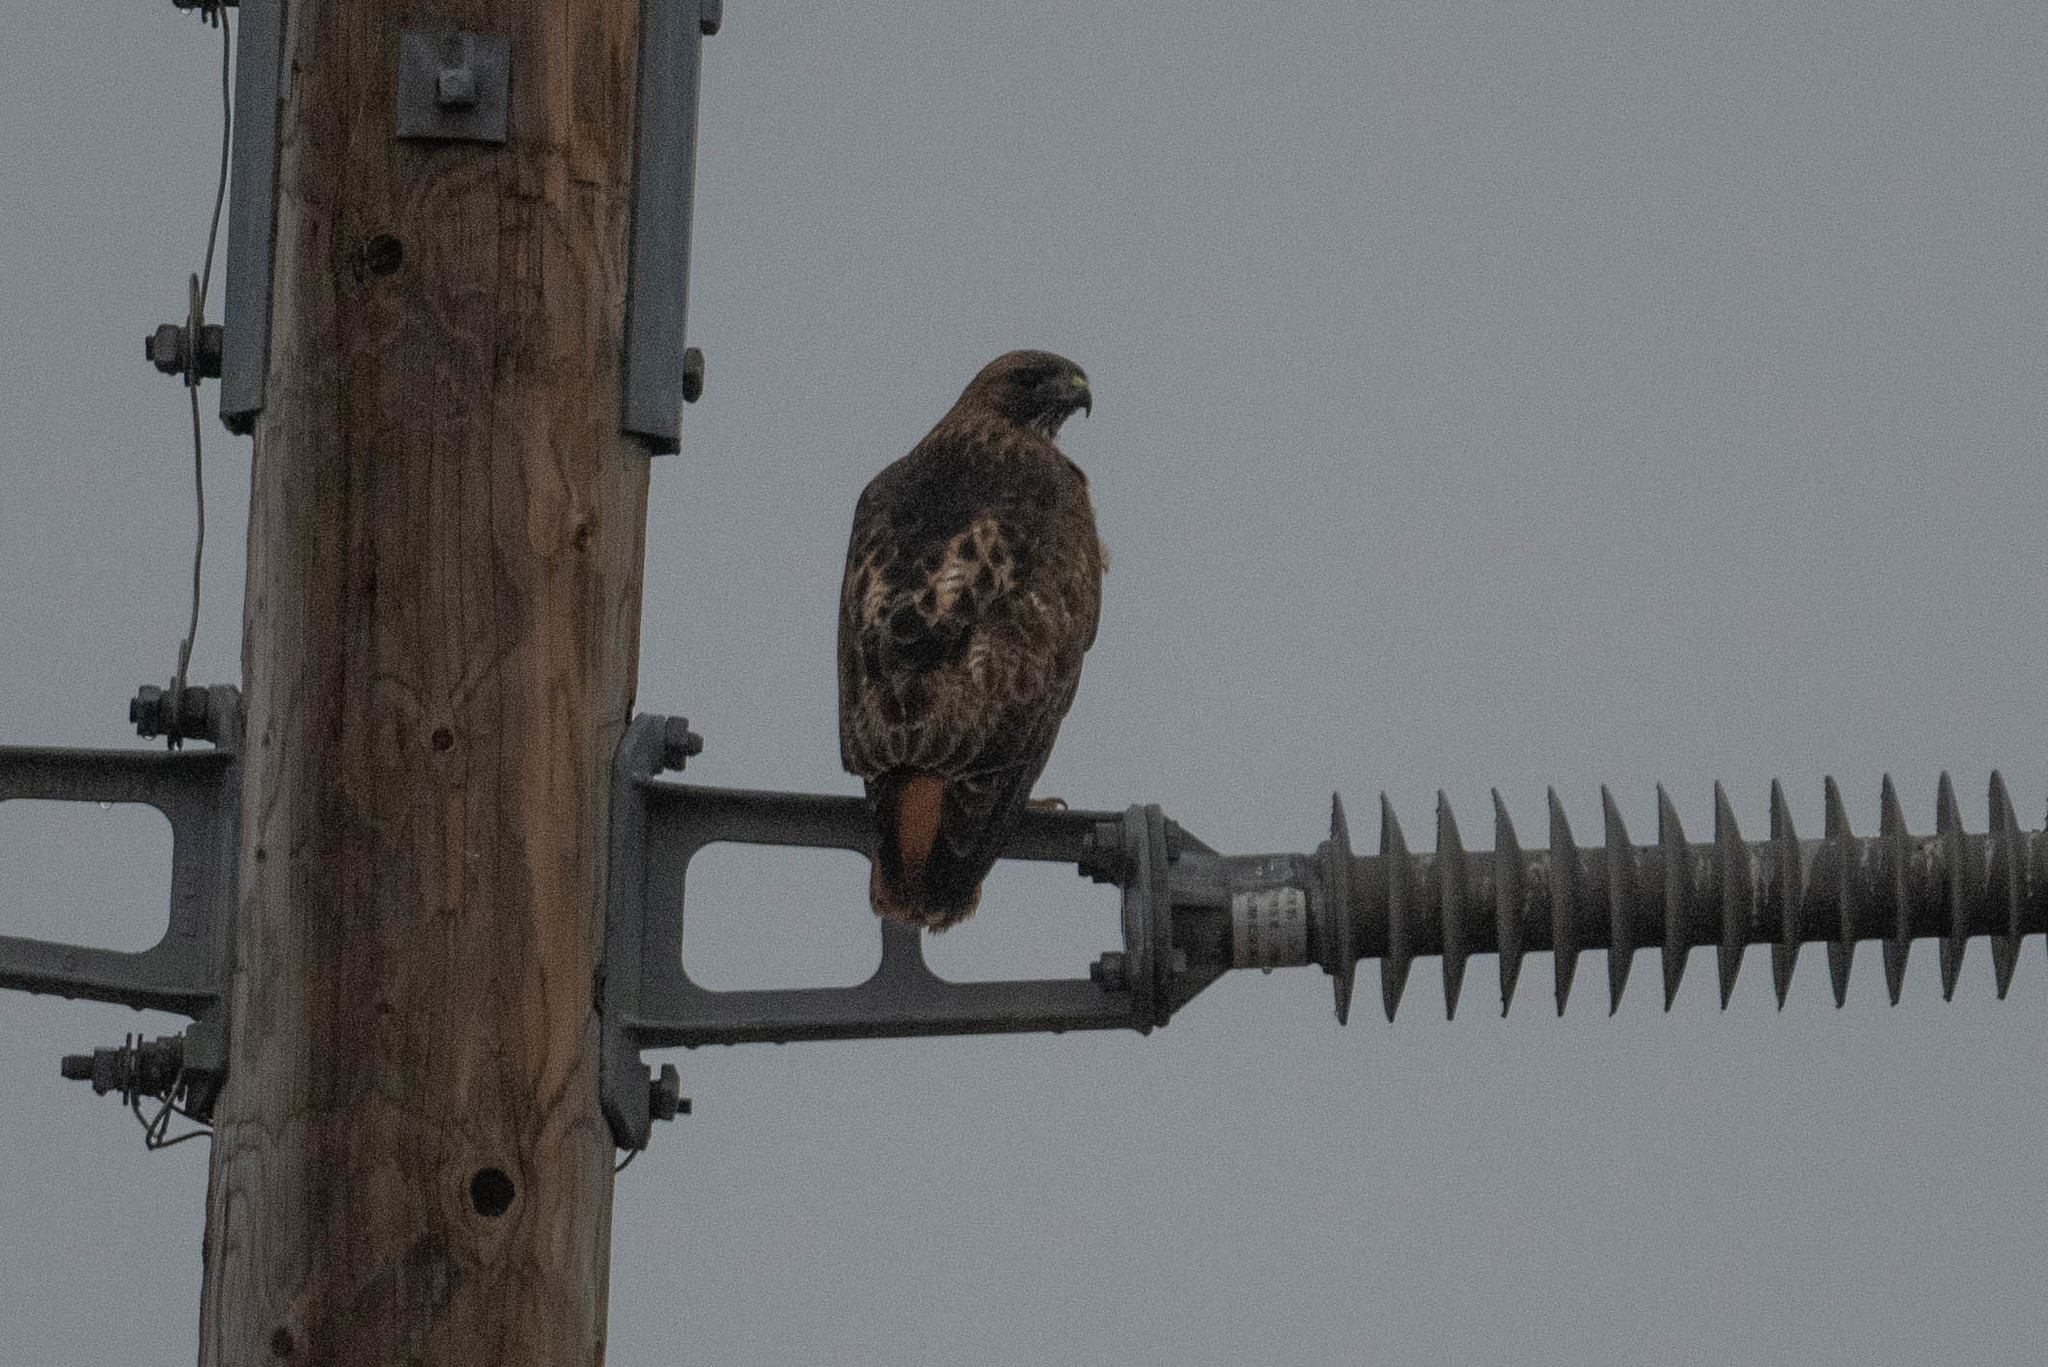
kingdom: Animalia
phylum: Chordata
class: Aves
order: Accipitriformes
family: Accipitridae
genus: Buteo
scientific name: Buteo jamaicensis
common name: Red-tailed hawk
